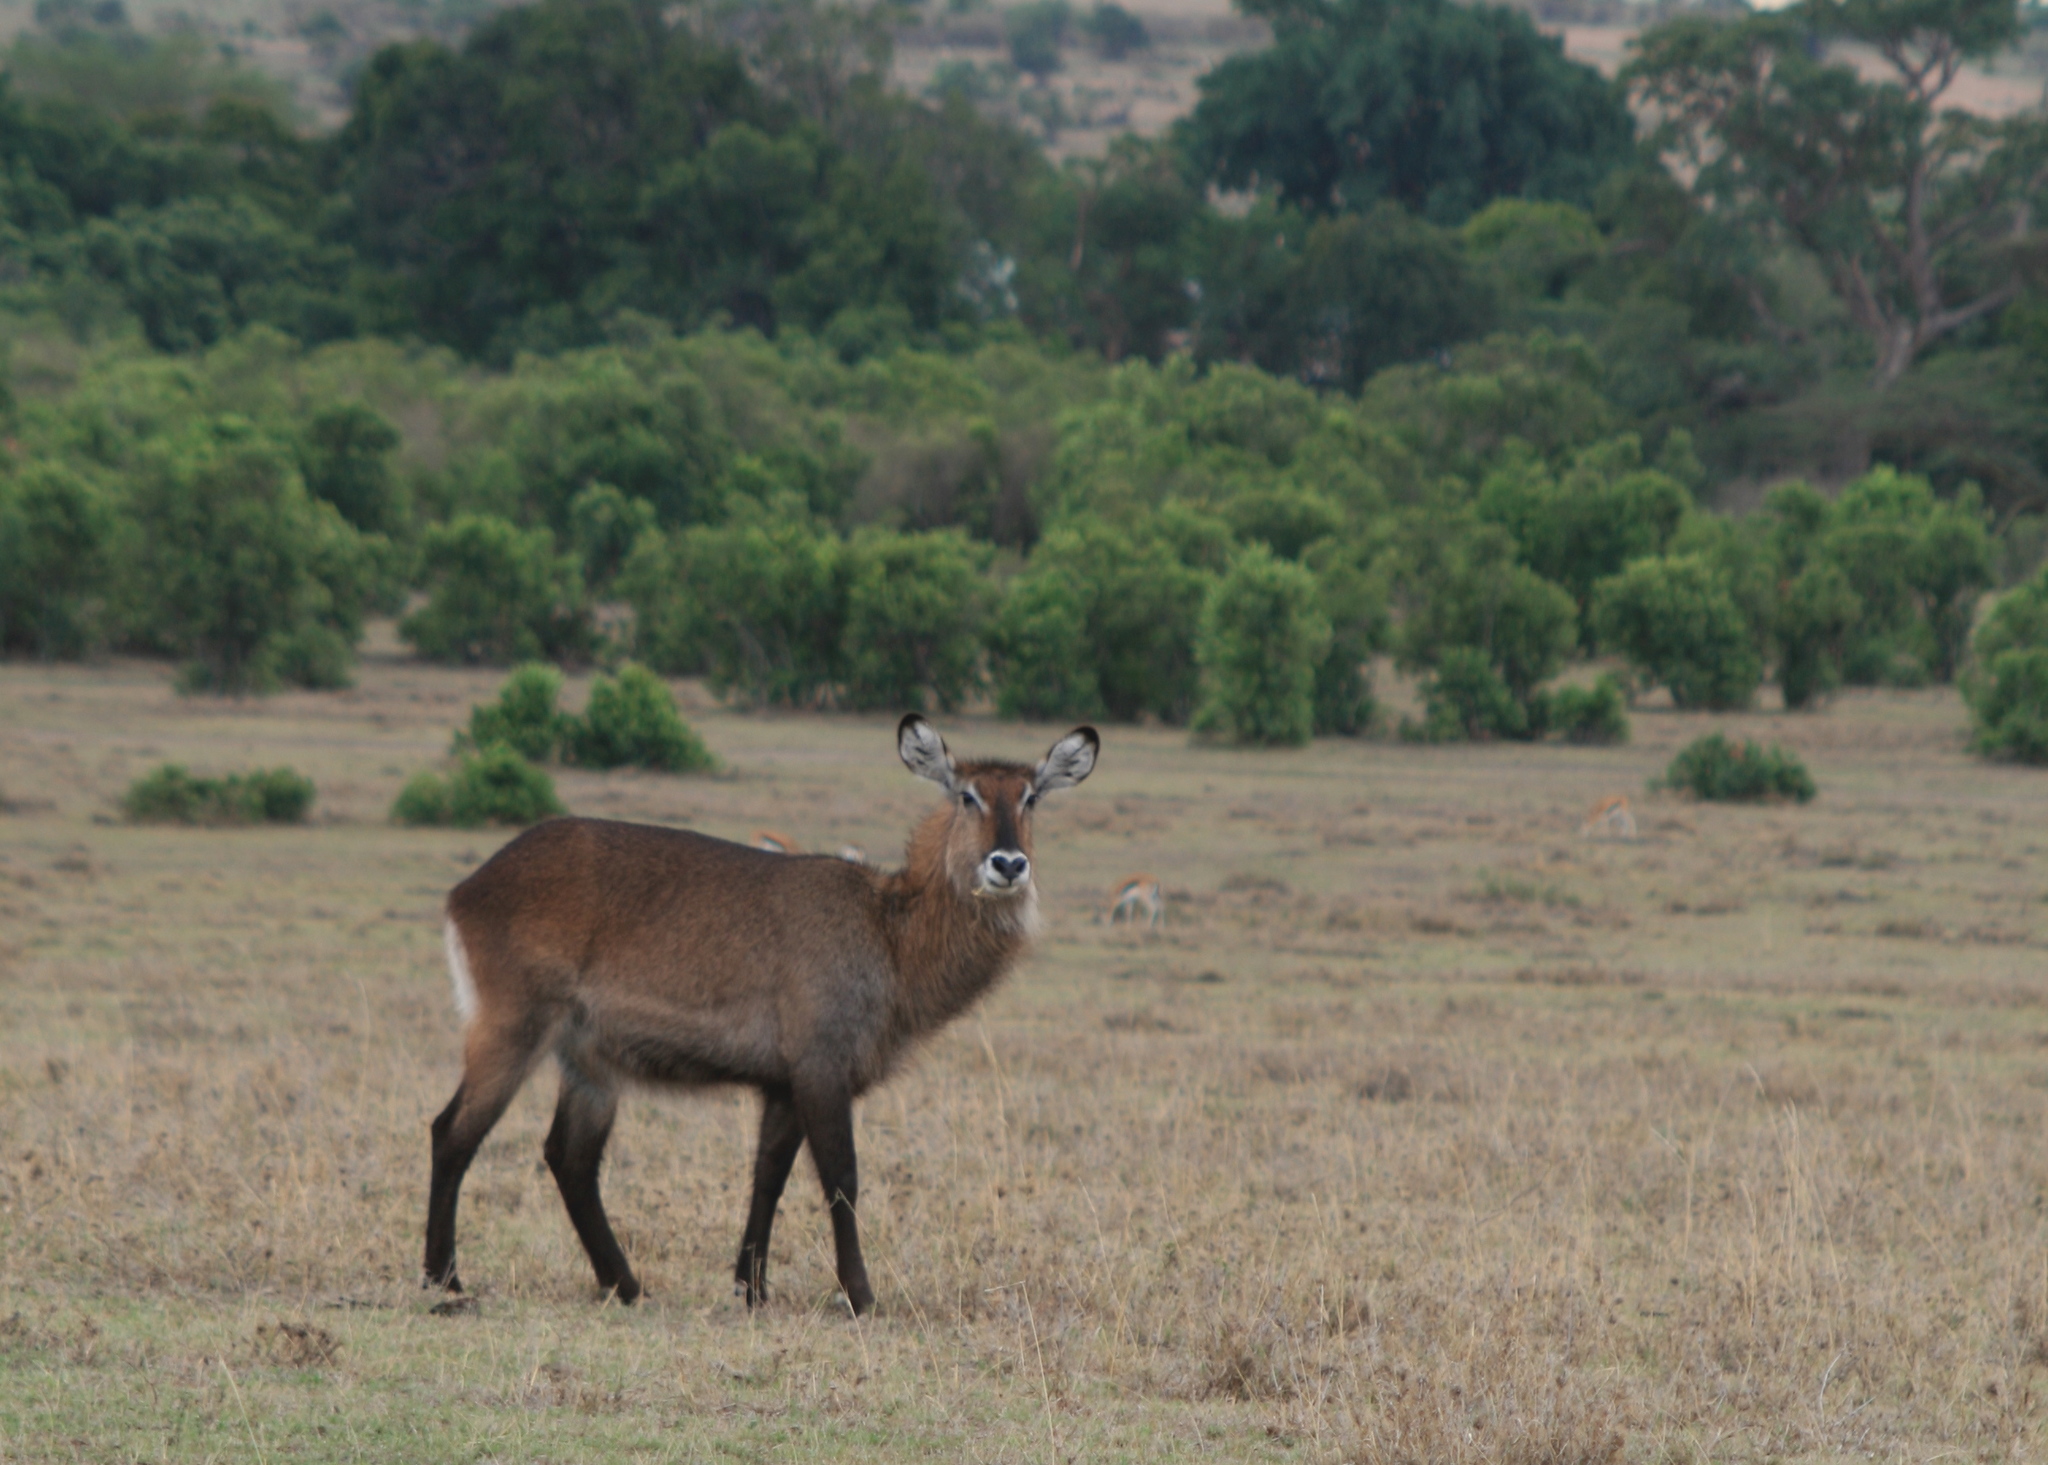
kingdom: Animalia
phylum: Chordata
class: Mammalia
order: Artiodactyla
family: Bovidae
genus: Kobus
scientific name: Kobus ellipsiprymnus
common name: Waterbuck
